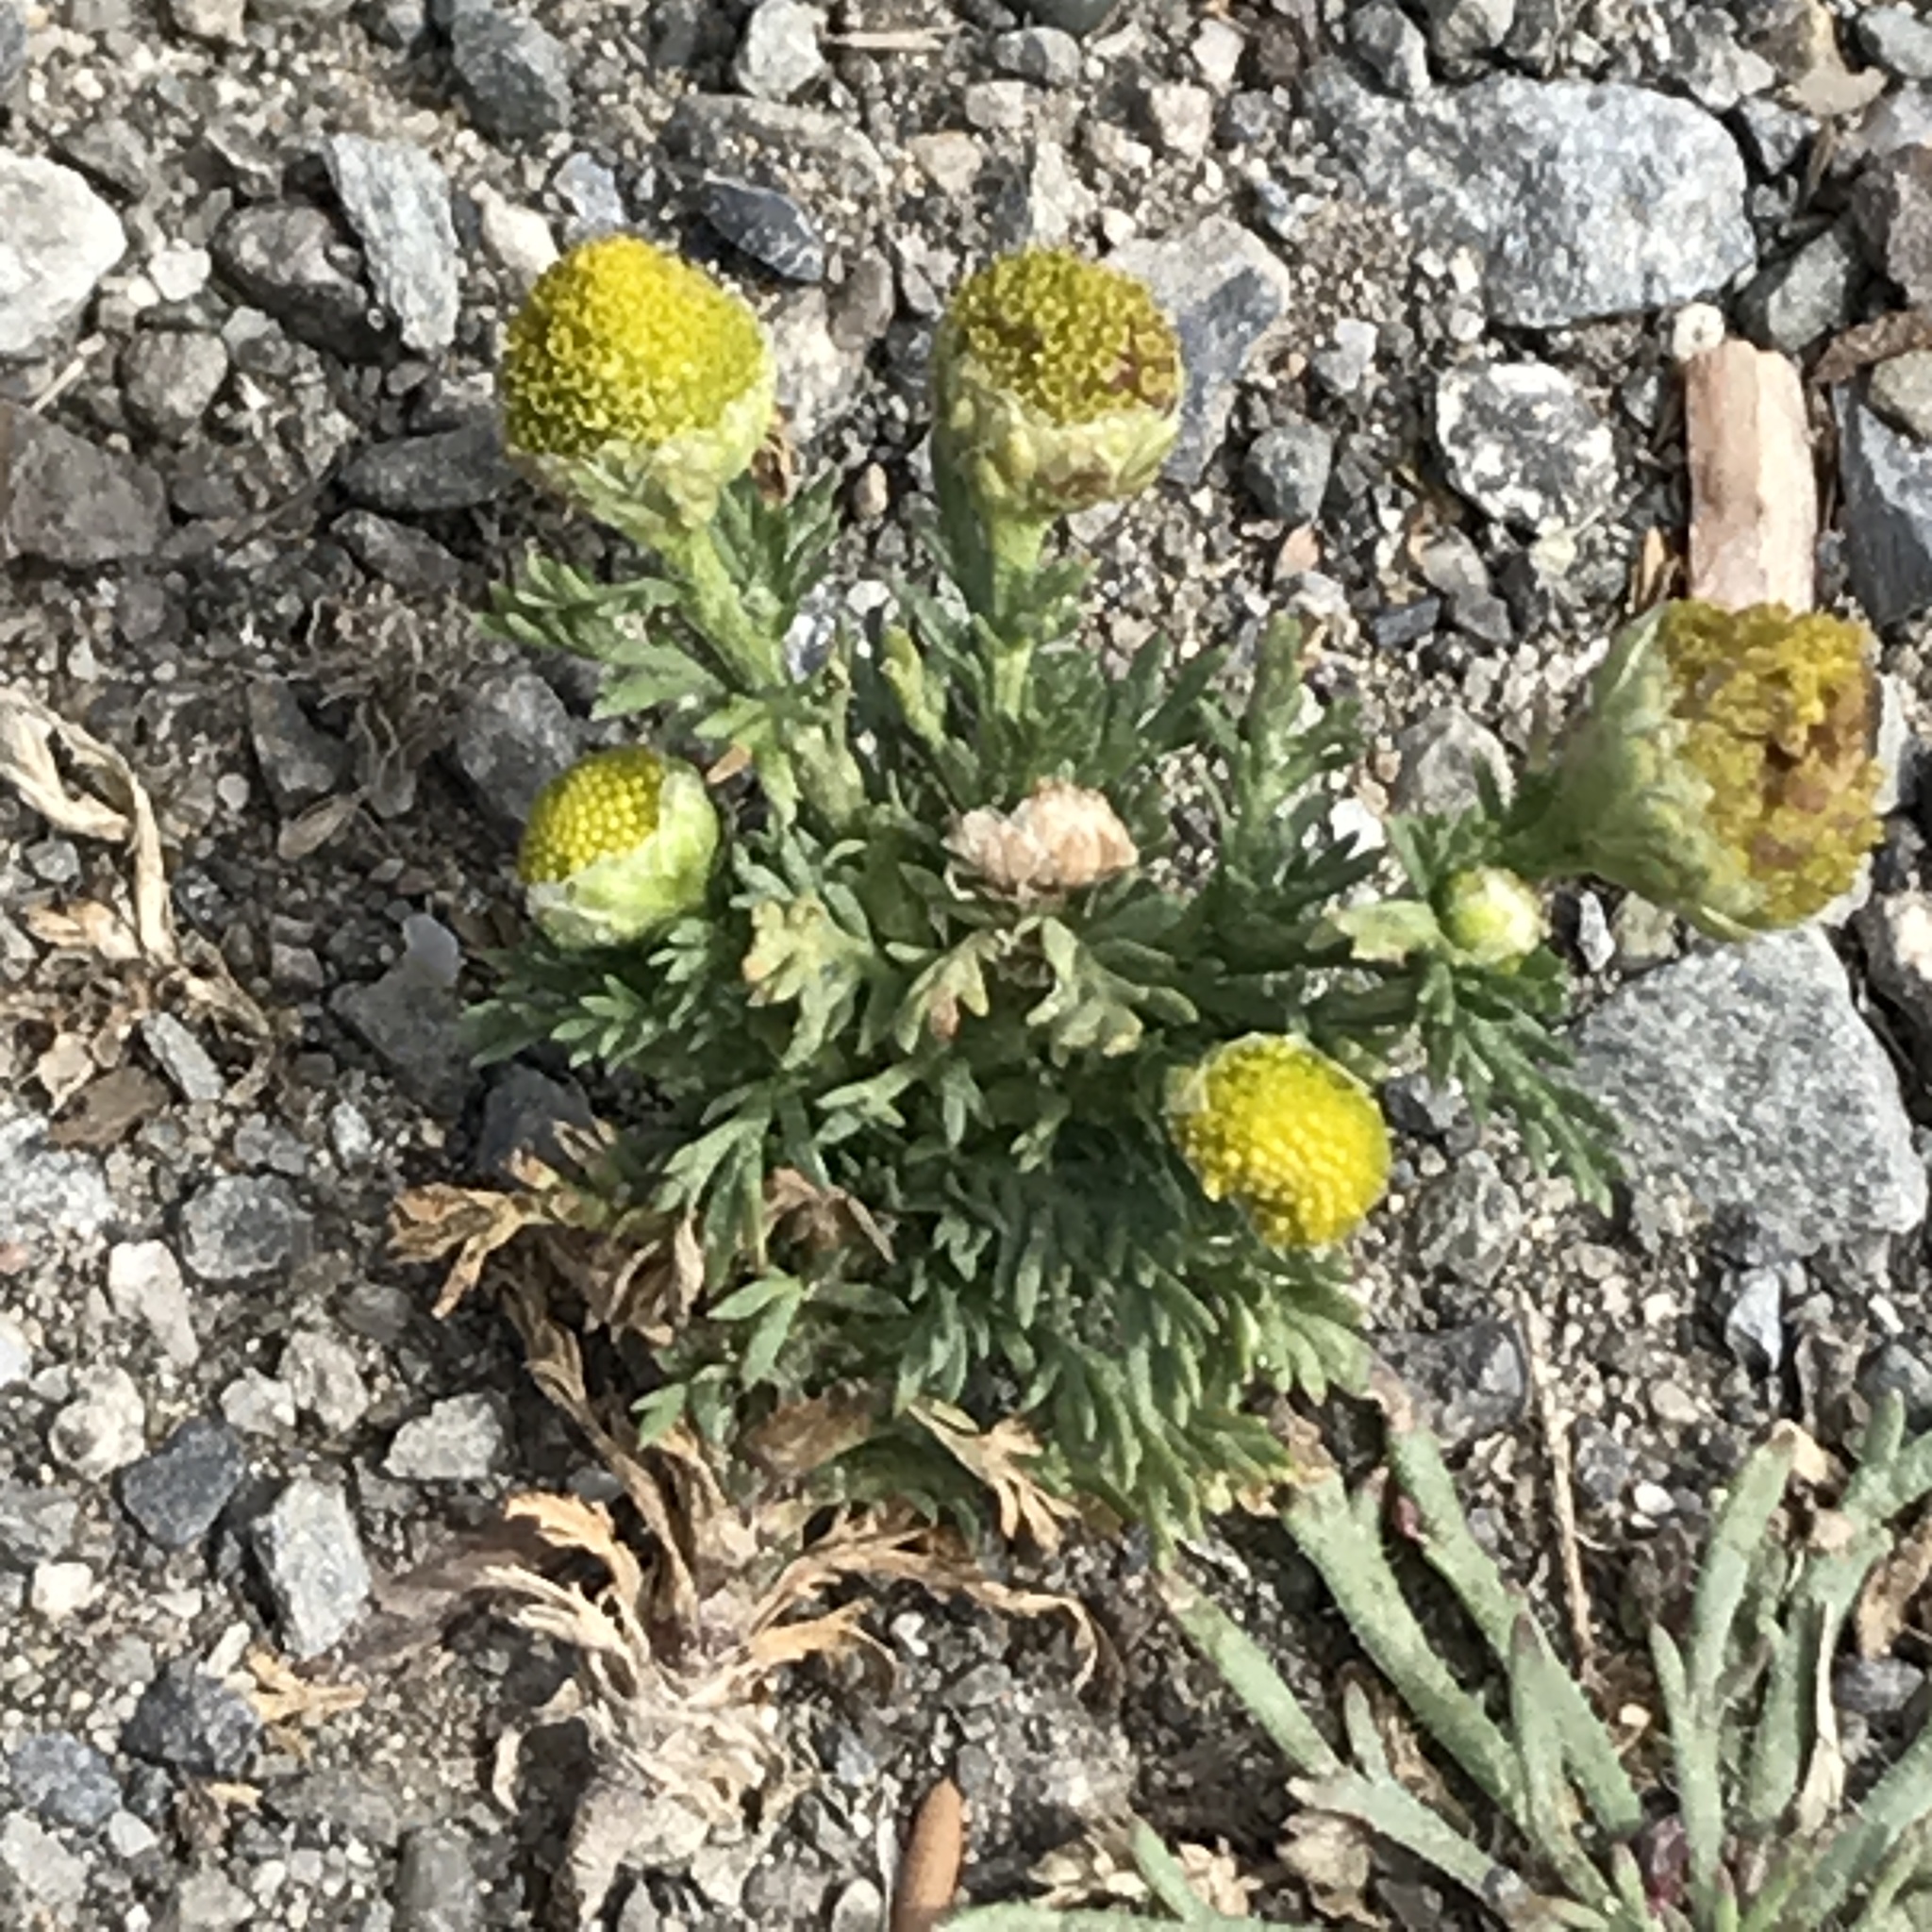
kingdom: Plantae
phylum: Tracheophyta
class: Magnoliopsida
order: Asterales
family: Asteraceae
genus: Matricaria
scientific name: Matricaria discoidea
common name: Disc mayweed
